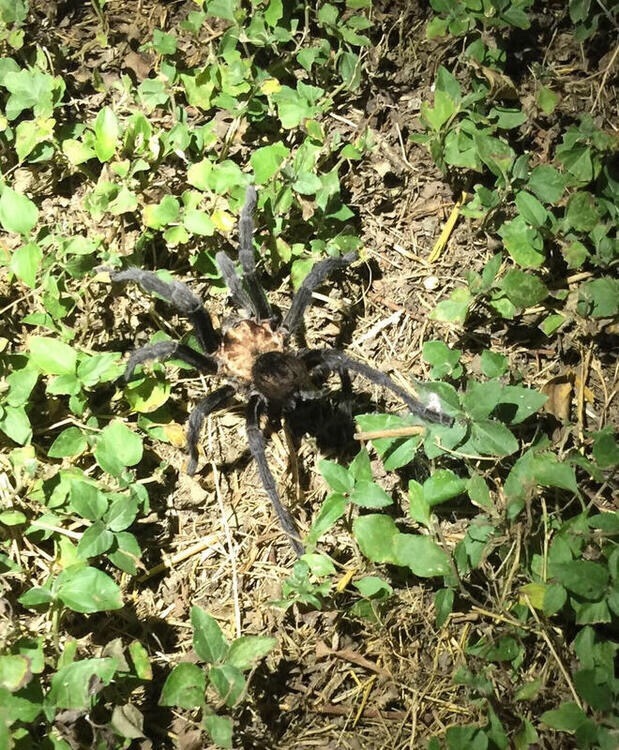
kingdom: Animalia
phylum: Arthropoda
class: Arachnida
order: Araneae
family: Theraphosidae
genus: Aphonopelma
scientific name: Aphonopelma hentzi
